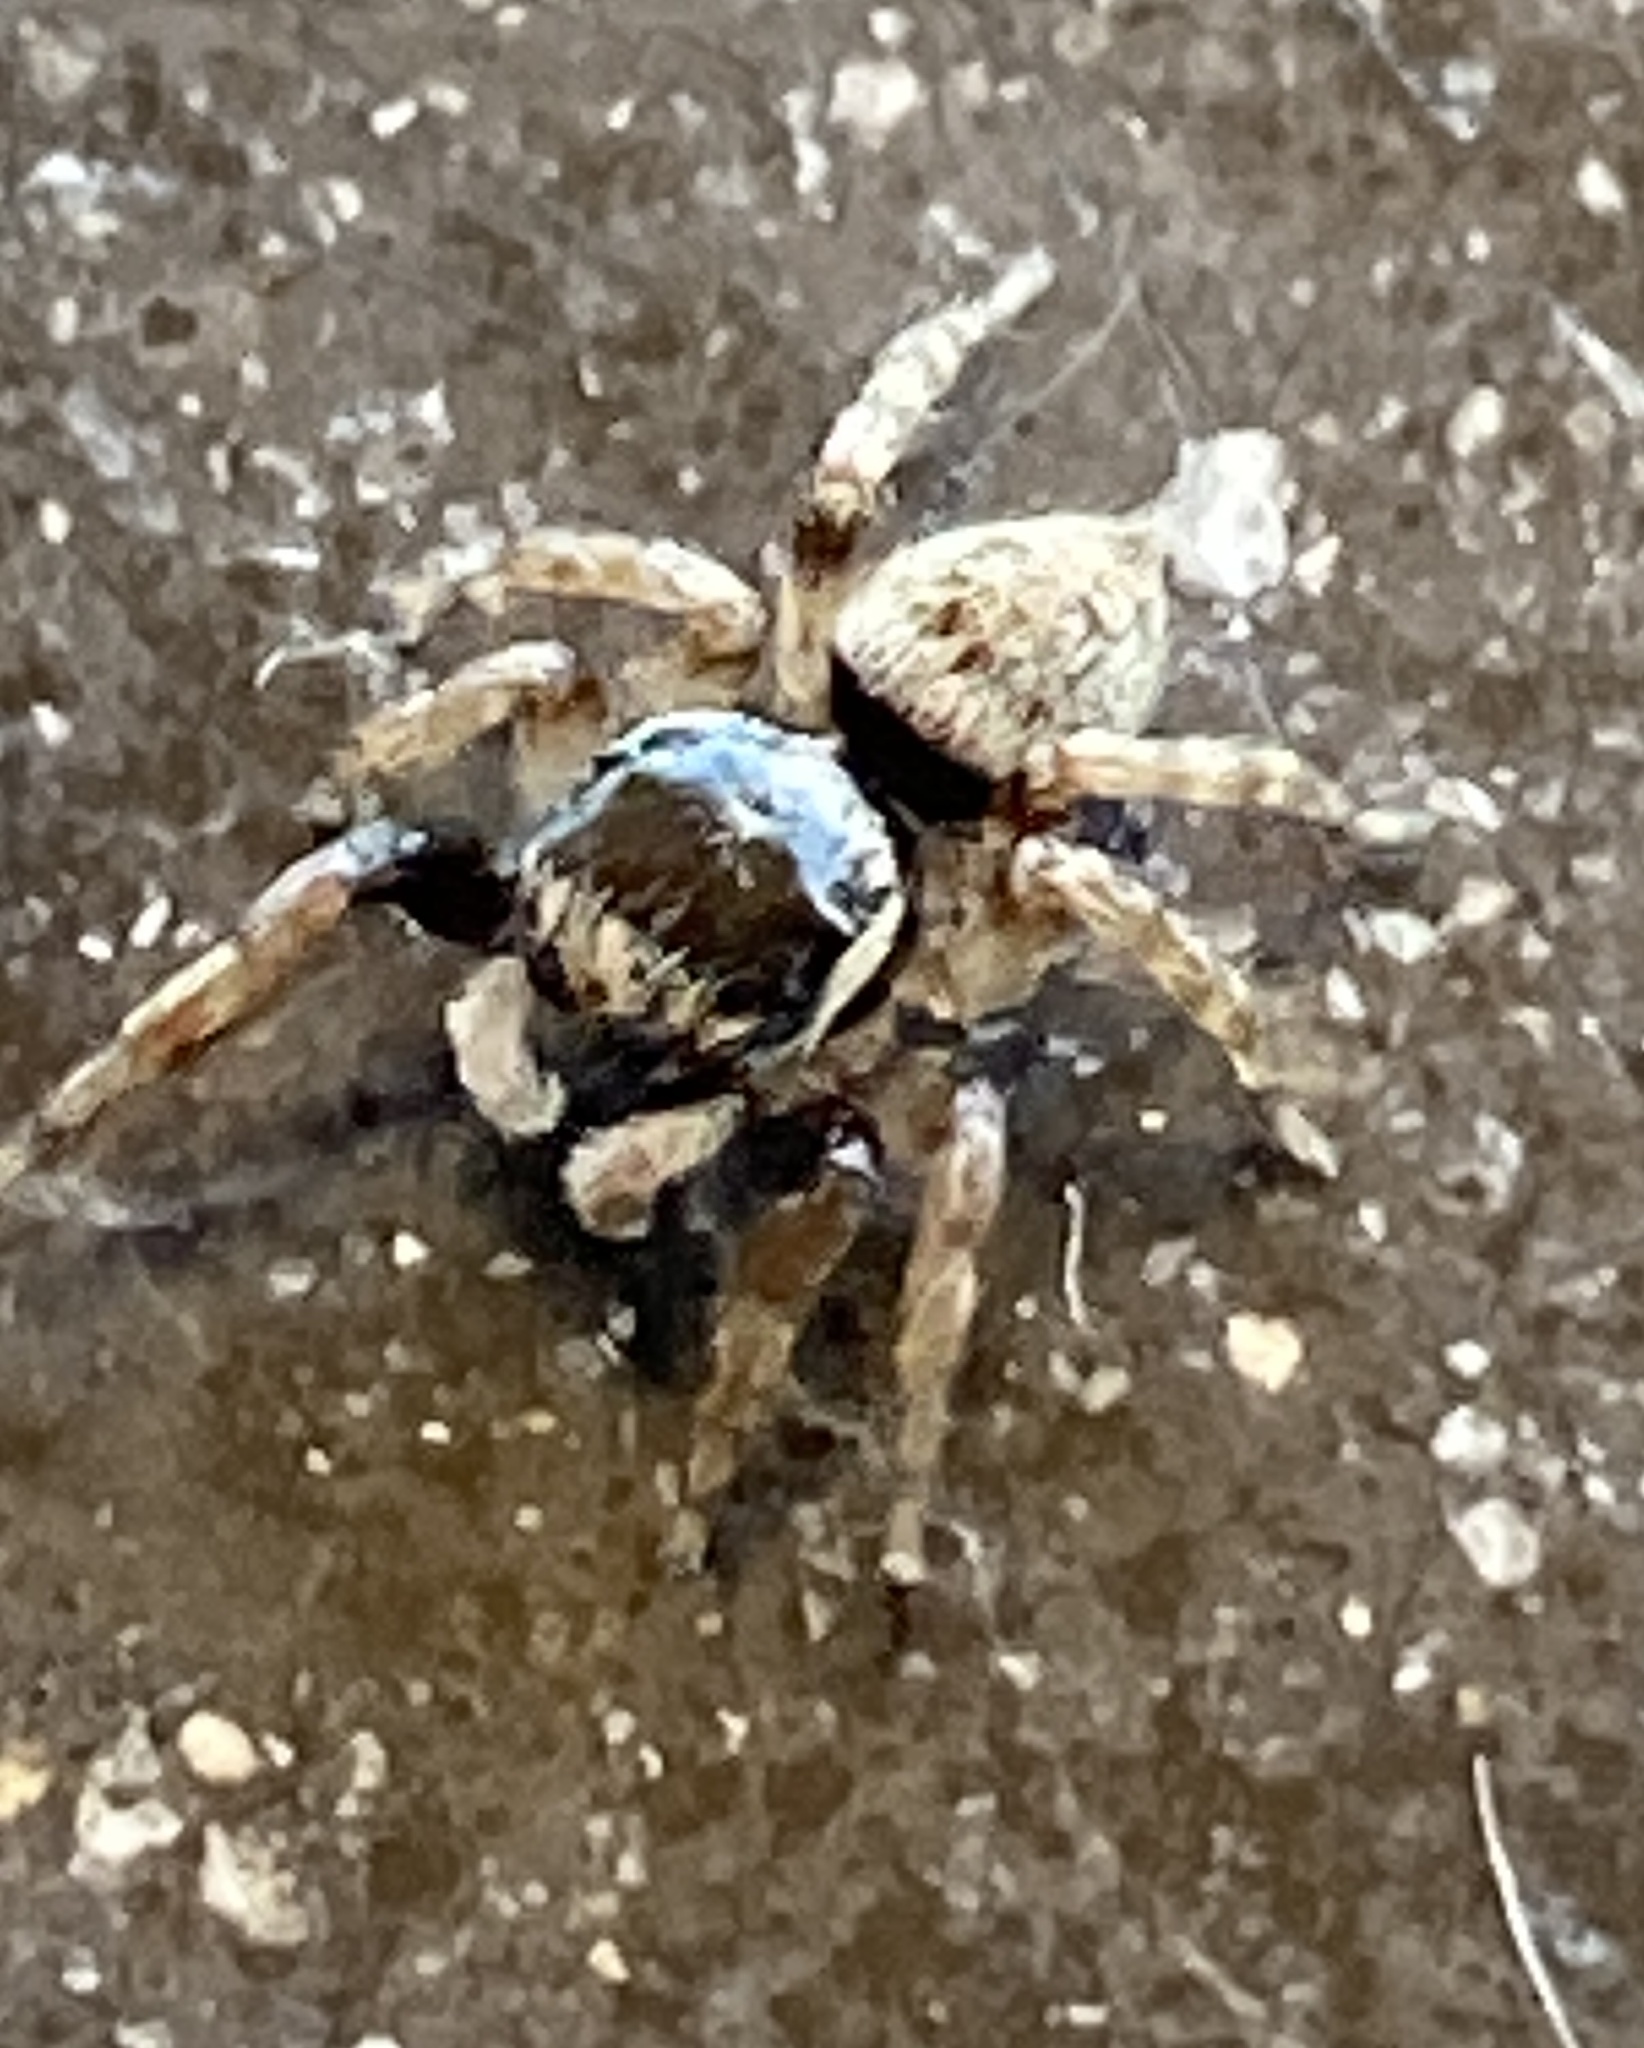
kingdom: Animalia
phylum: Arthropoda
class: Arachnida
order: Araneae
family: Salticidae
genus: Thyenula
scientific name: Thyenula aurantiaca
